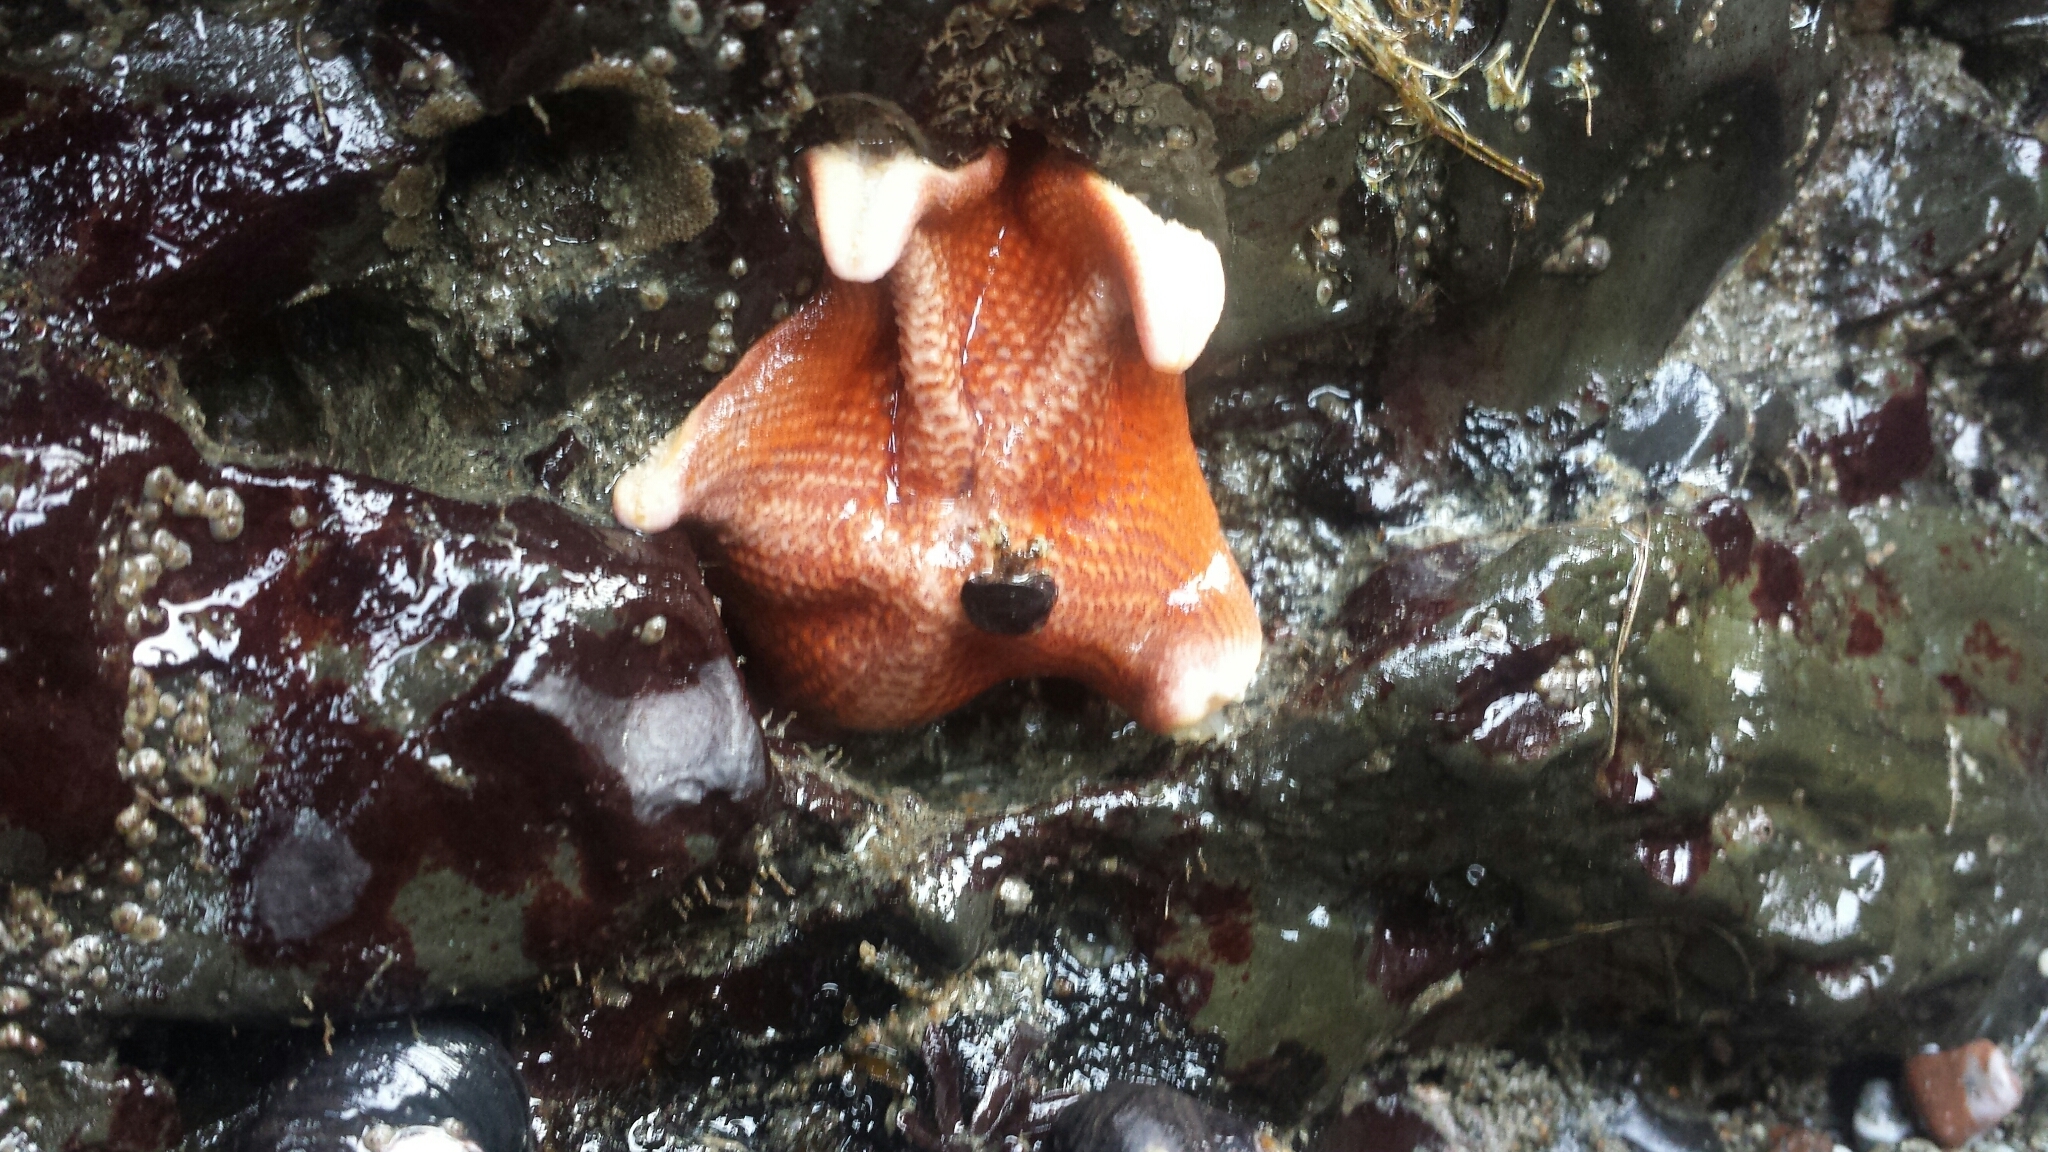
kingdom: Animalia
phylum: Echinodermata
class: Asteroidea
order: Valvatida
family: Asterinidae
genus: Patiria
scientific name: Patiria miniata
